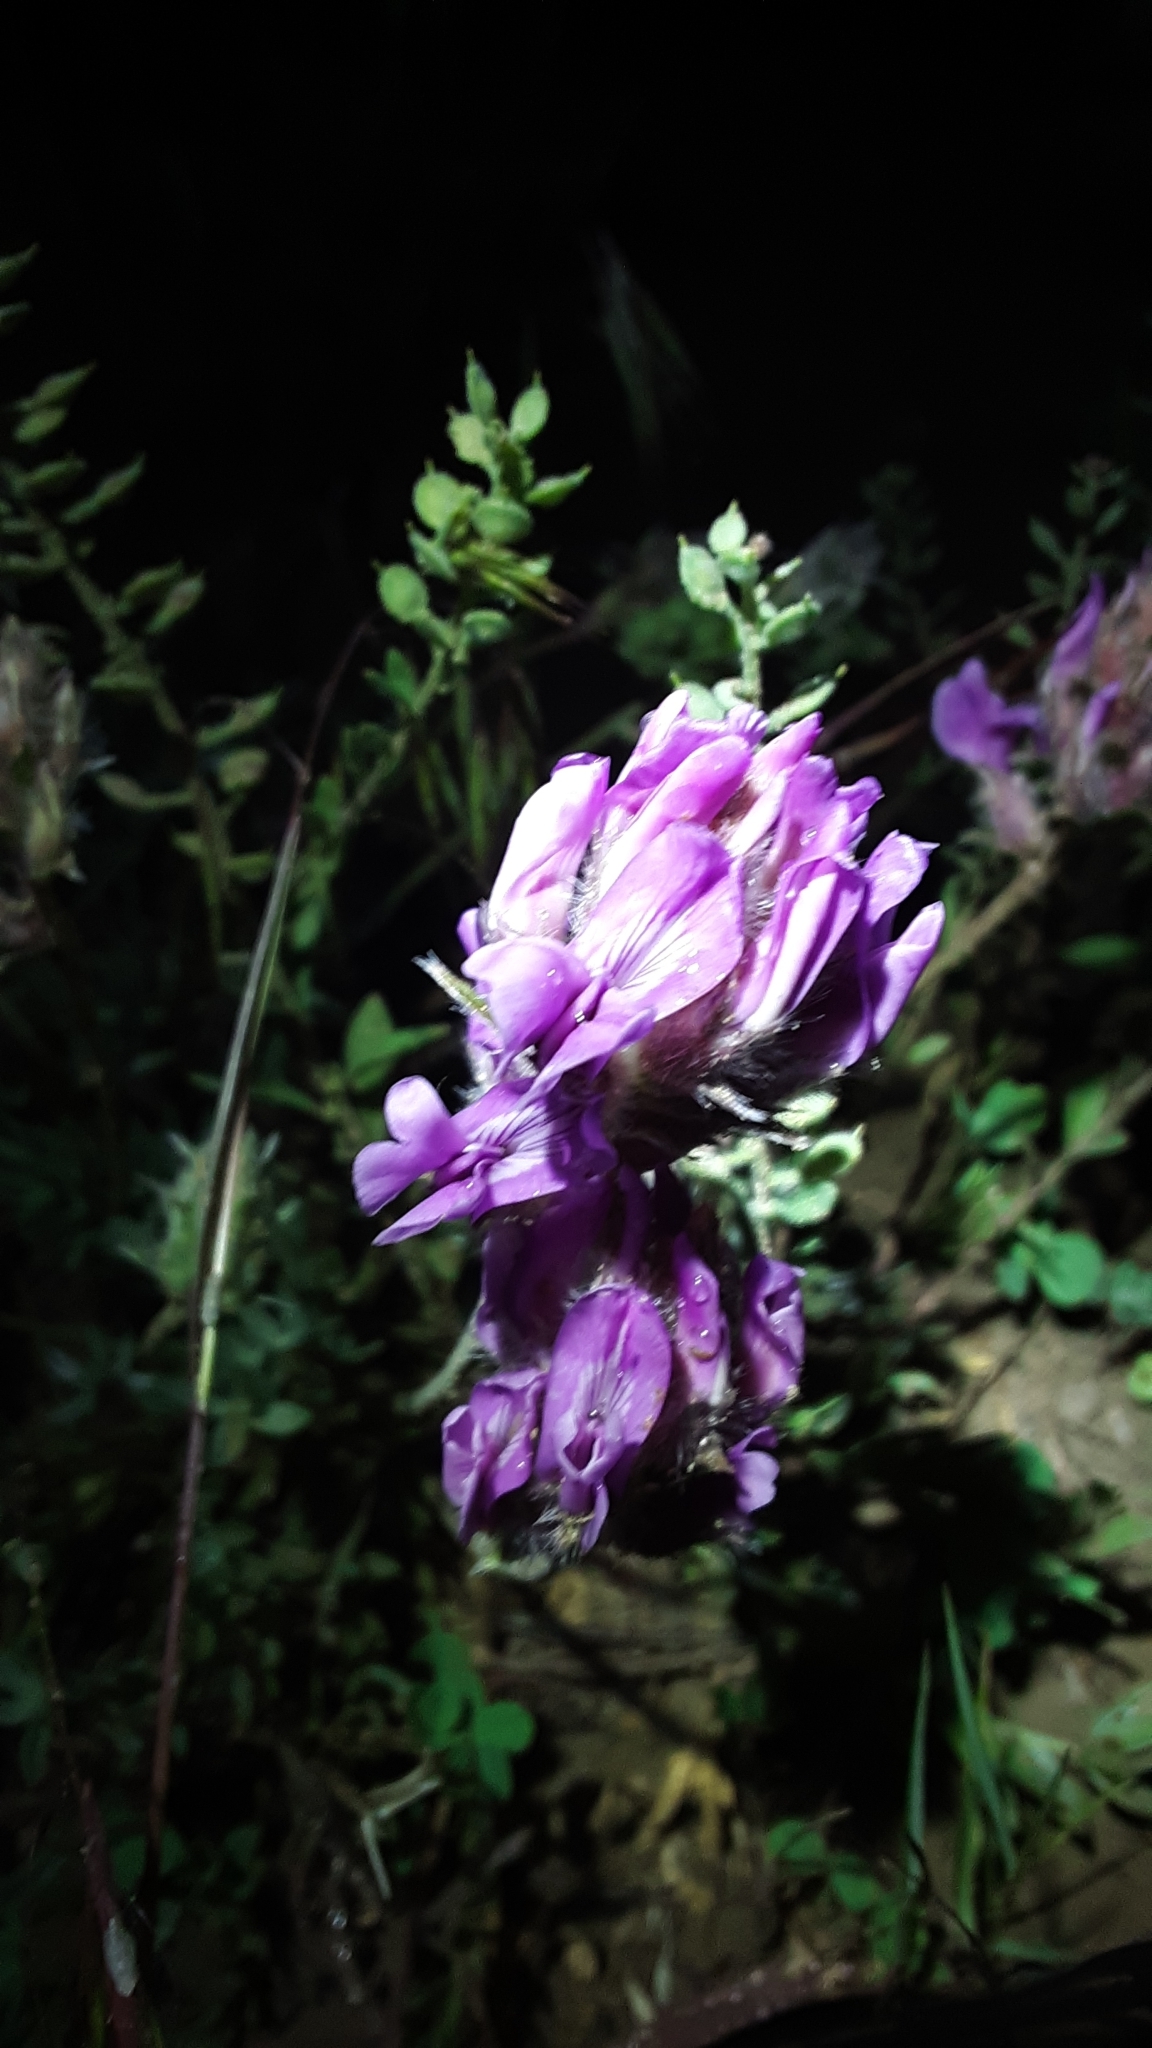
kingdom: Plantae
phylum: Tracheophyta
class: Magnoliopsida
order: Fabales
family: Fabaceae
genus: Oxytropis
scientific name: Oxytropis besseyi
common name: Bessey's locoweed
